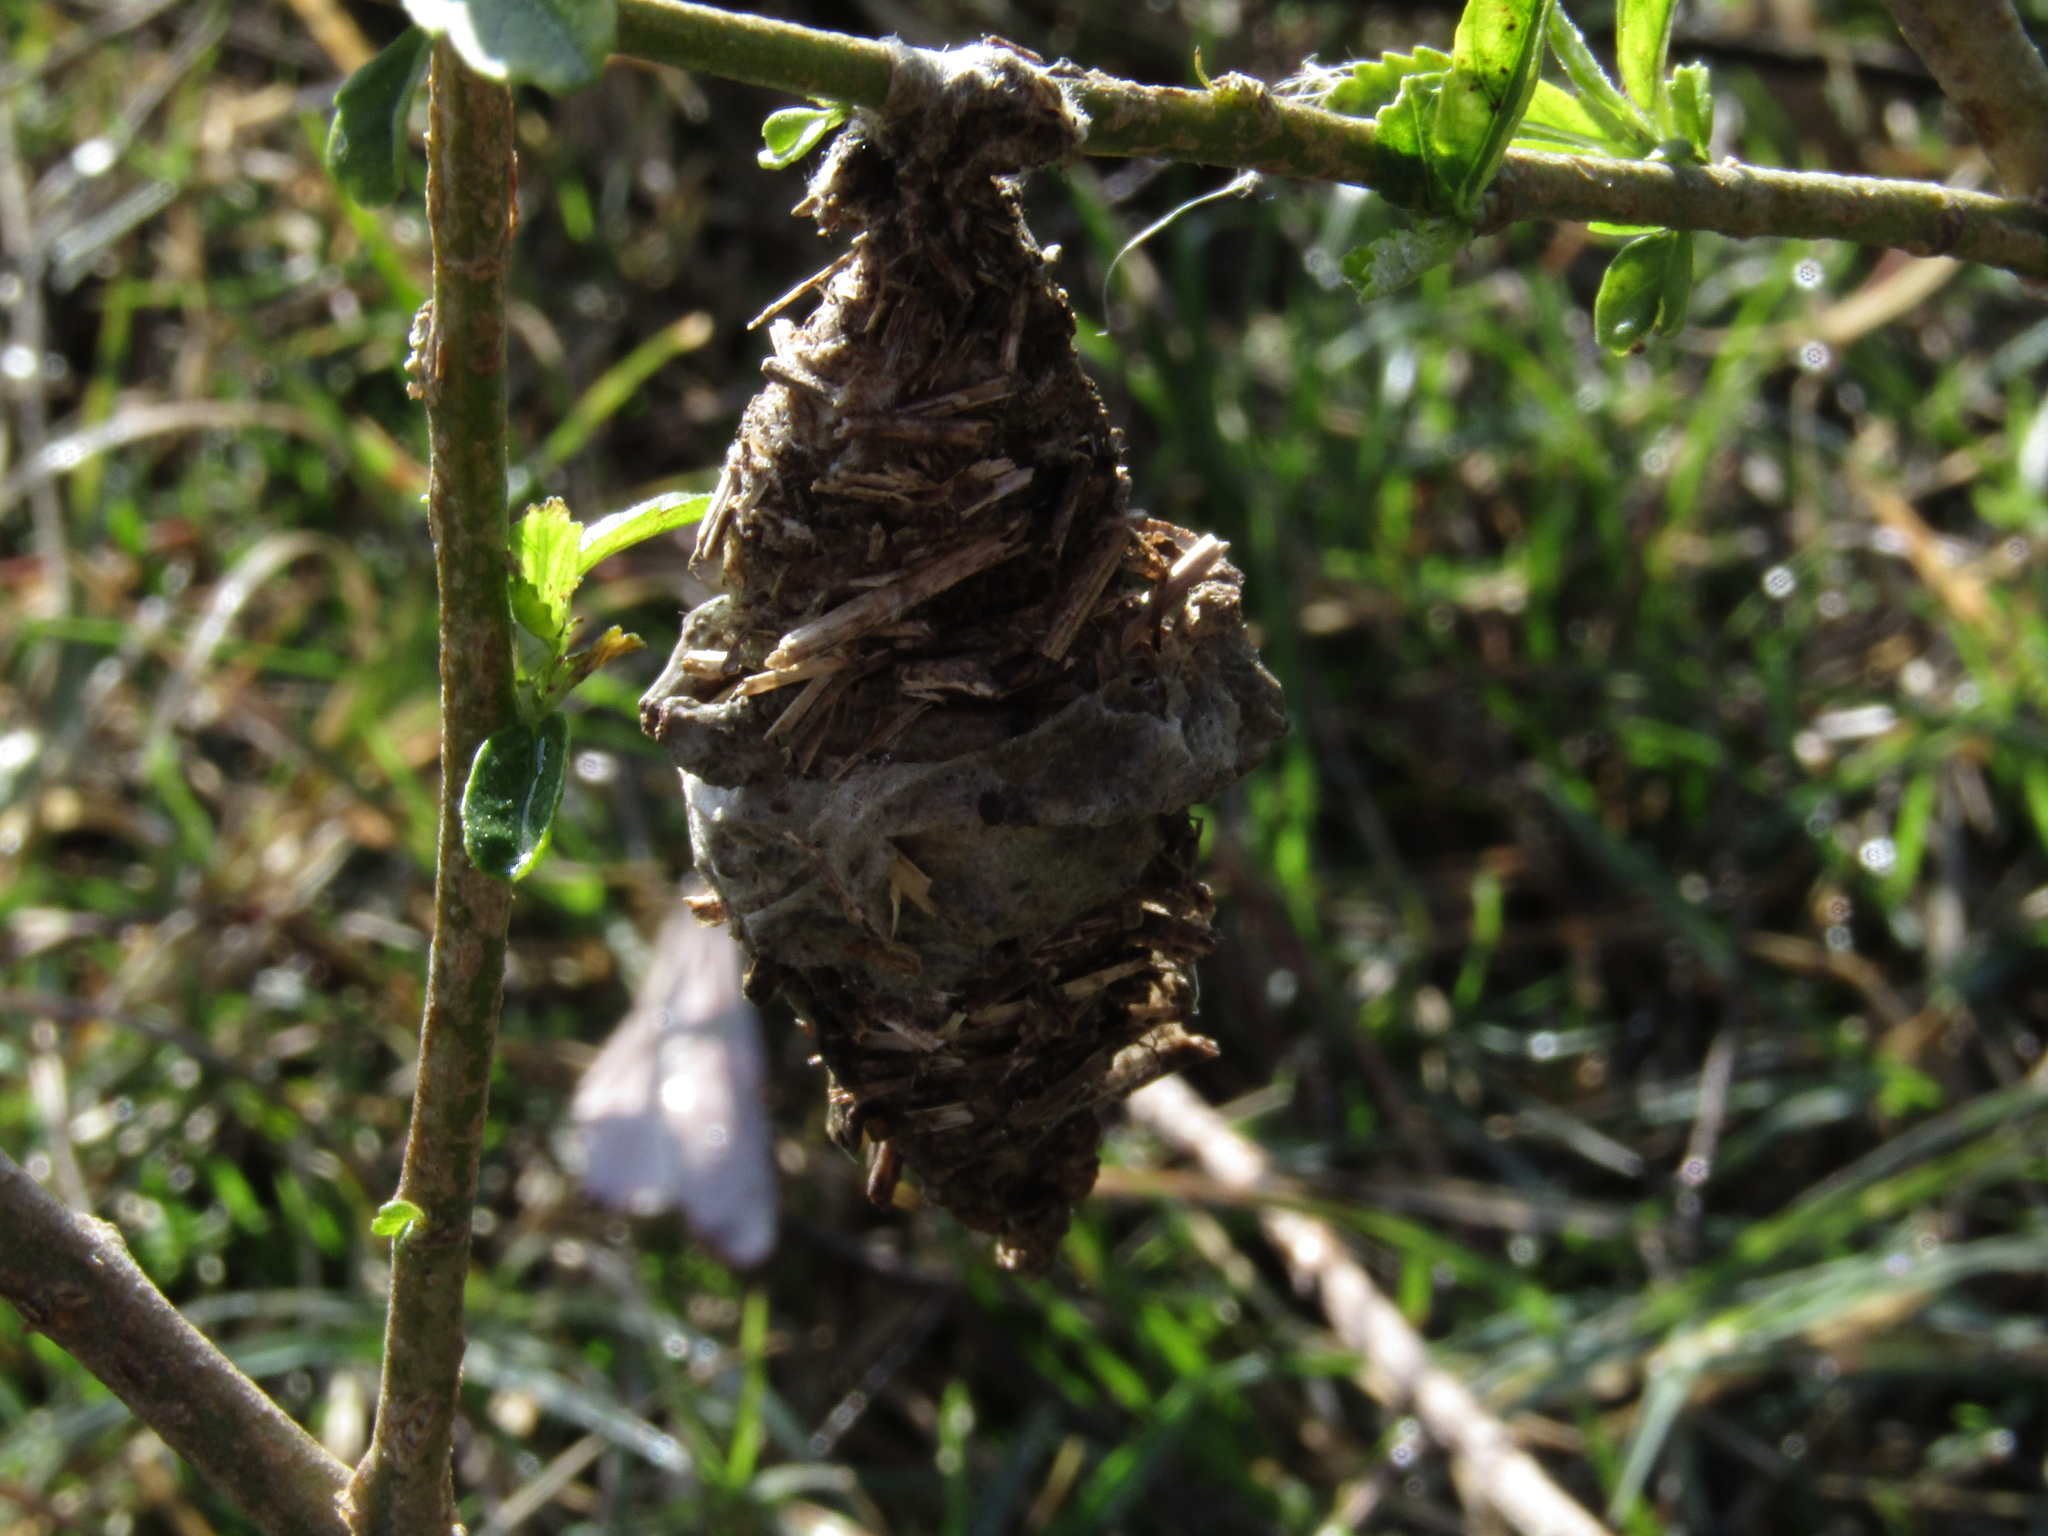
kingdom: Animalia
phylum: Arthropoda
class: Insecta
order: Lepidoptera
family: Psychidae
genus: Oiketicus
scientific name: Oiketicus
